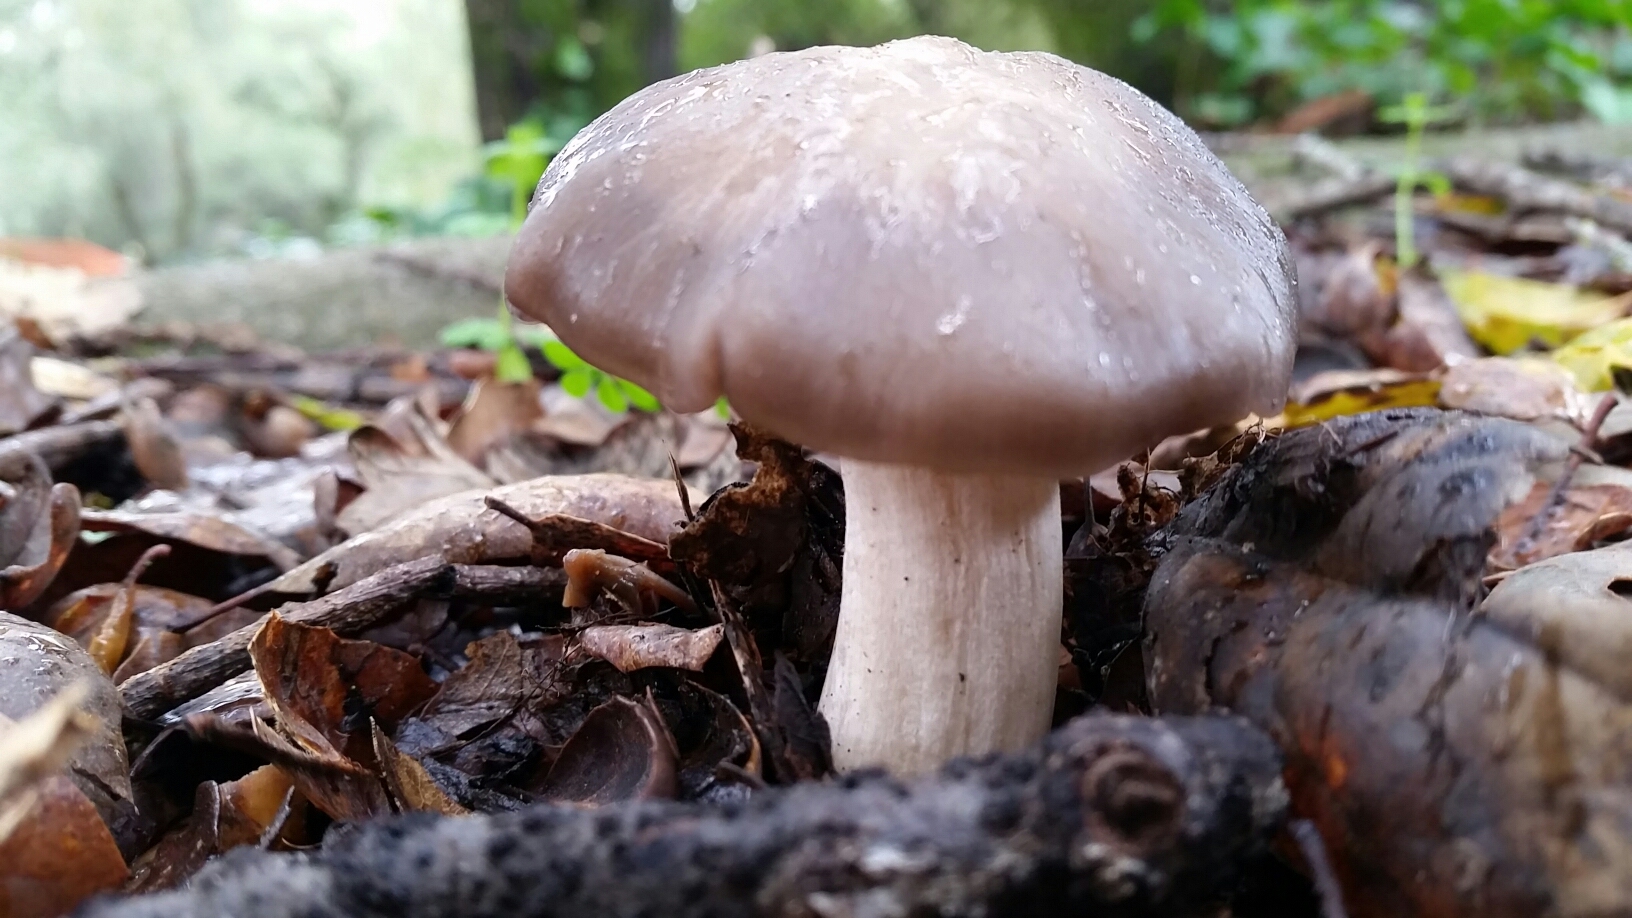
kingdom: Fungi
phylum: Basidiomycota
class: Agaricomycetes
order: Agaricales
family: Entolomataceae
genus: Entoloma
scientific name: Entoloma ferruginans
